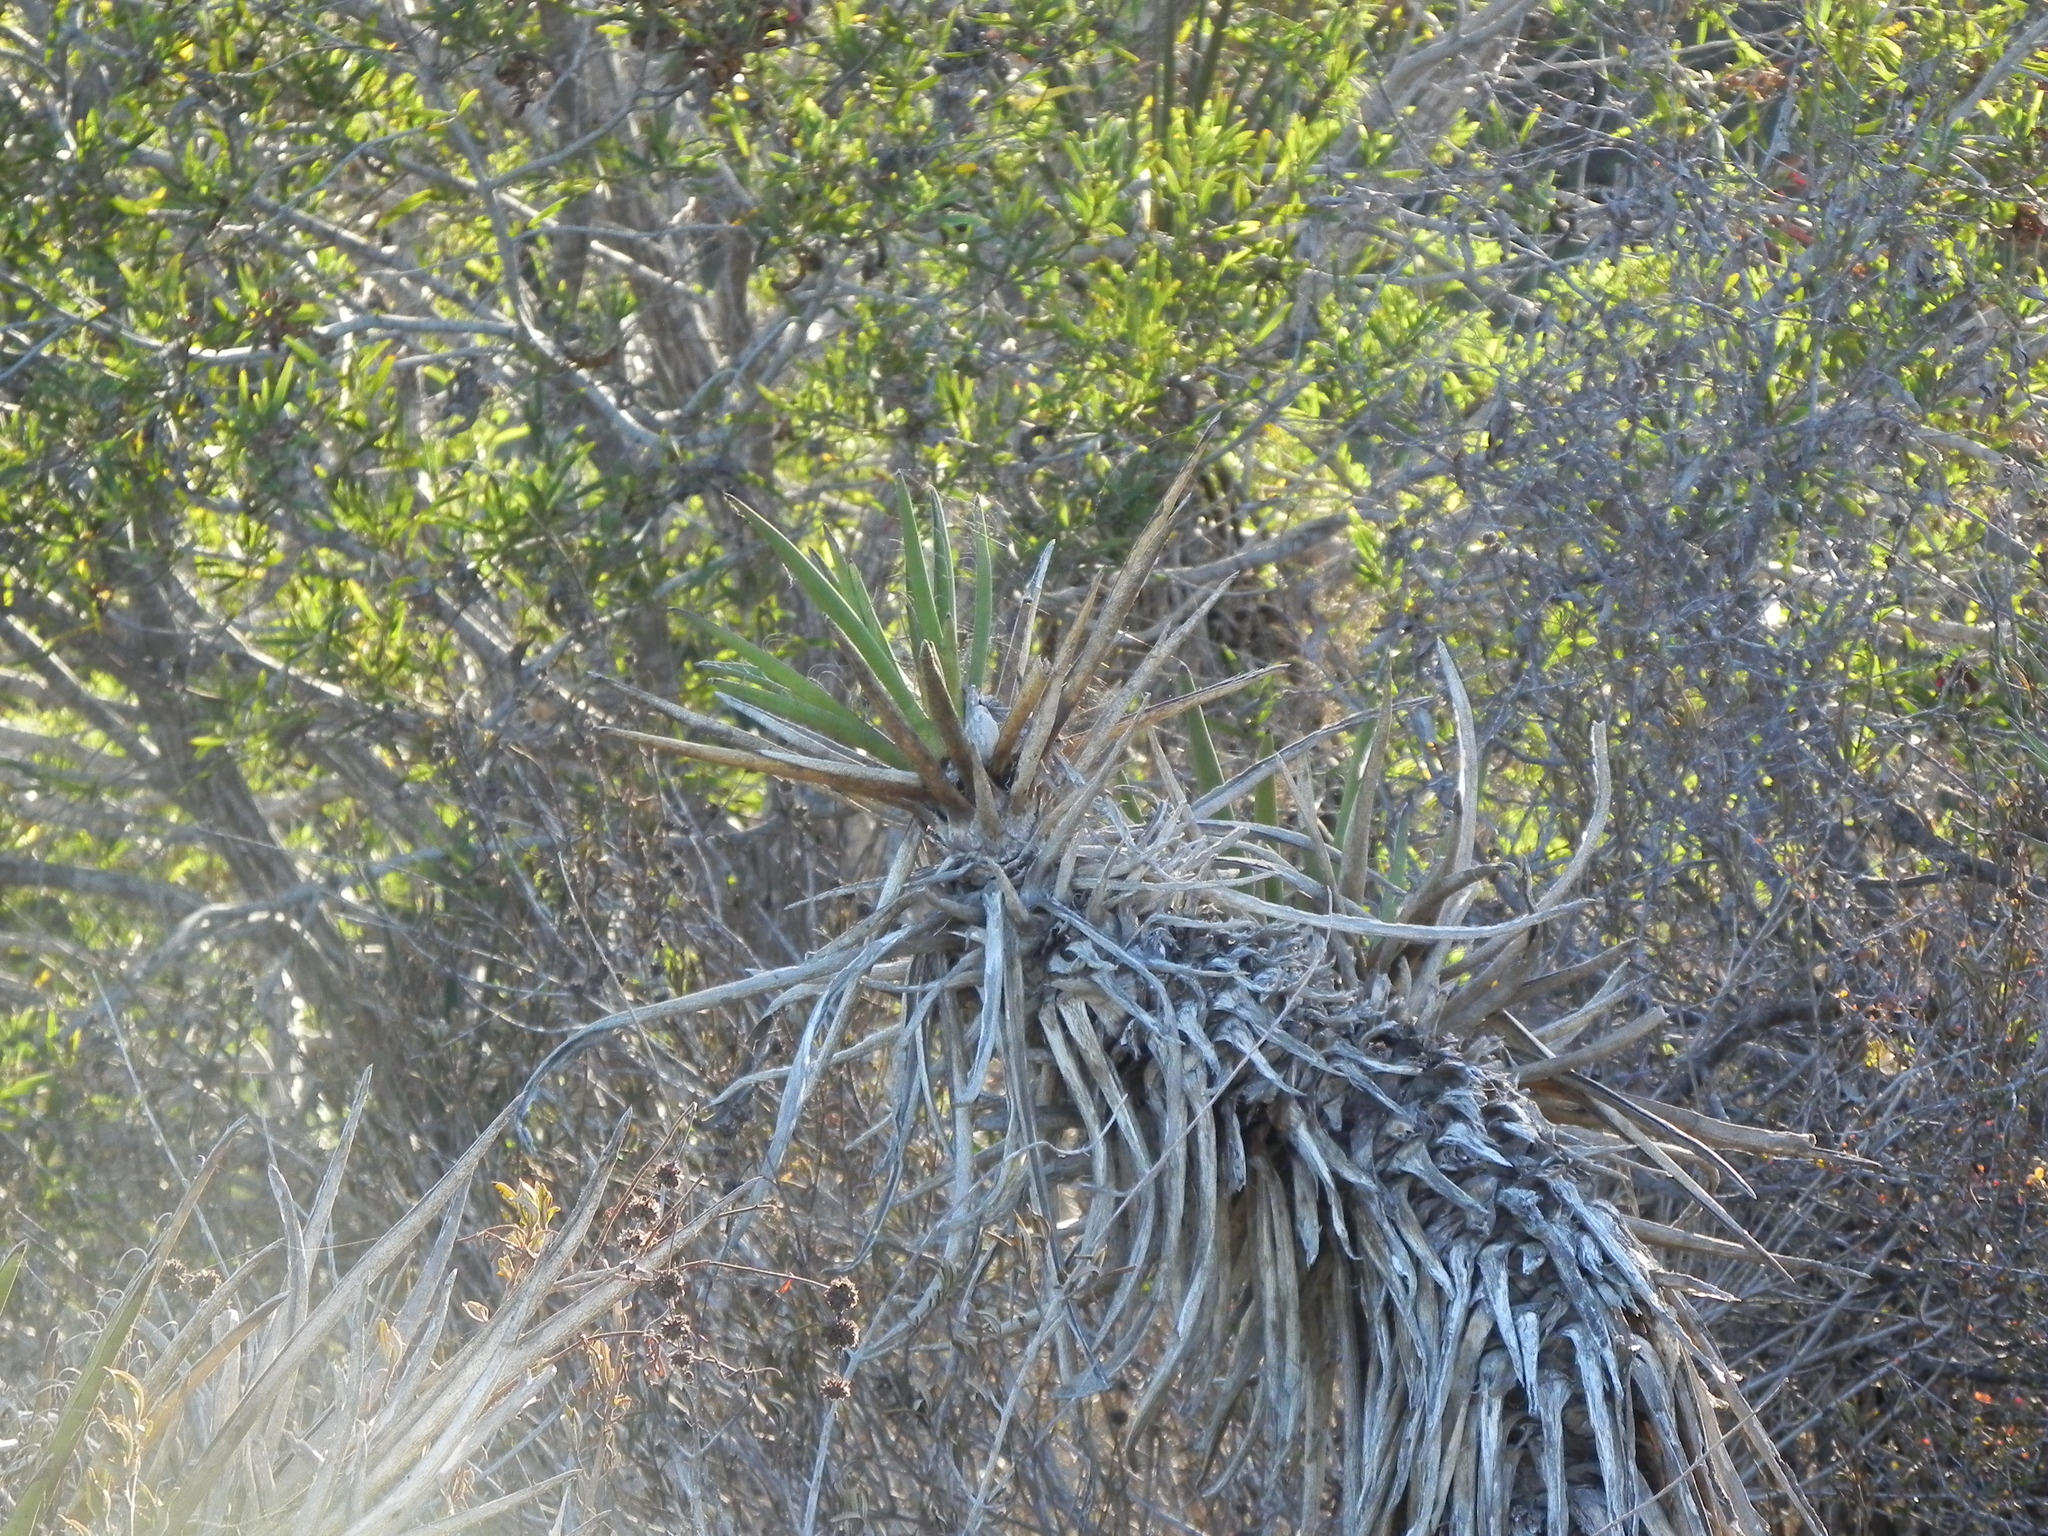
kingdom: Plantae
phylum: Tracheophyta
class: Liliopsida
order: Asparagales
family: Asparagaceae
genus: Yucca
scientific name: Yucca schidigera
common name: Mojave yucca
